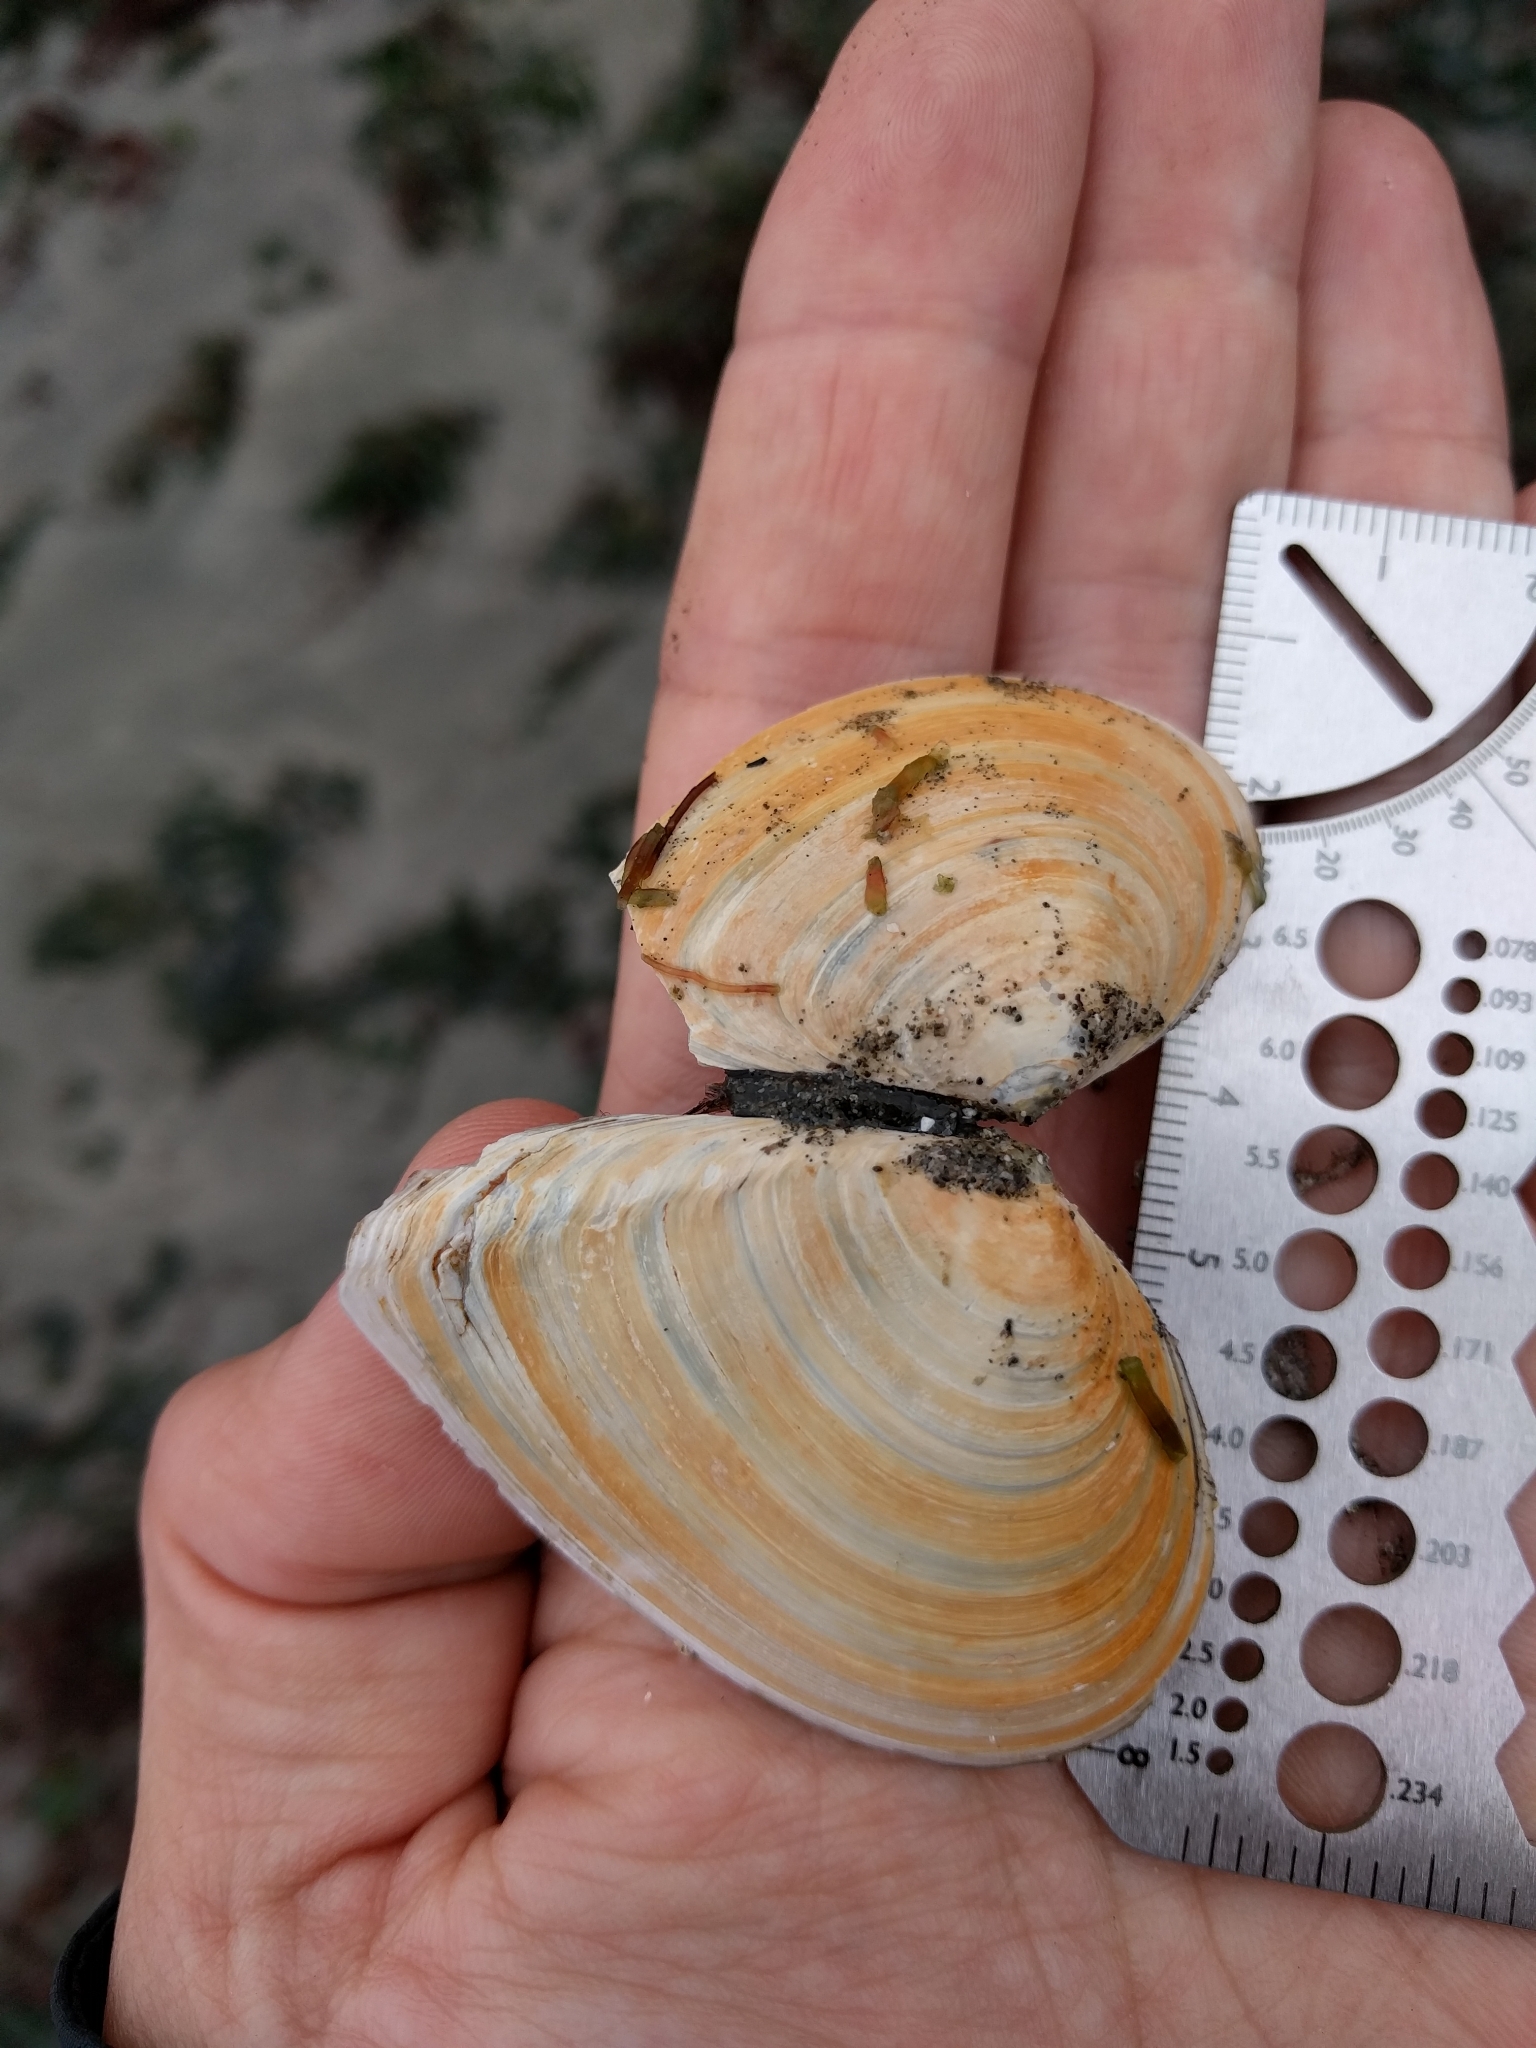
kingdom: Animalia
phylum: Mollusca
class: Bivalvia
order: Cardiida
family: Tellinidae
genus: Macoma
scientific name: Macoma nasuta
